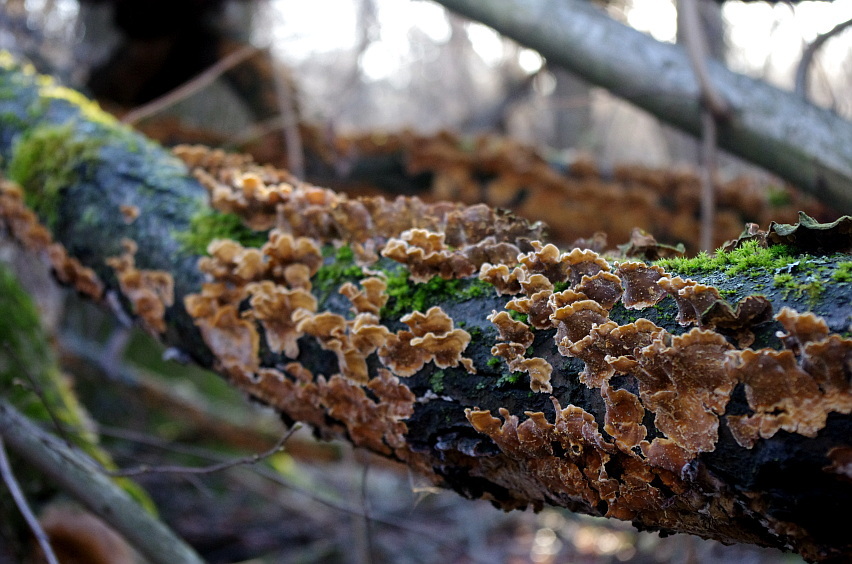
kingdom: Fungi
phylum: Basidiomycota
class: Agaricomycetes
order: Russulales
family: Stereaceae
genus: Stereum
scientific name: Stereum hirsutum
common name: Hairy curtain crust
